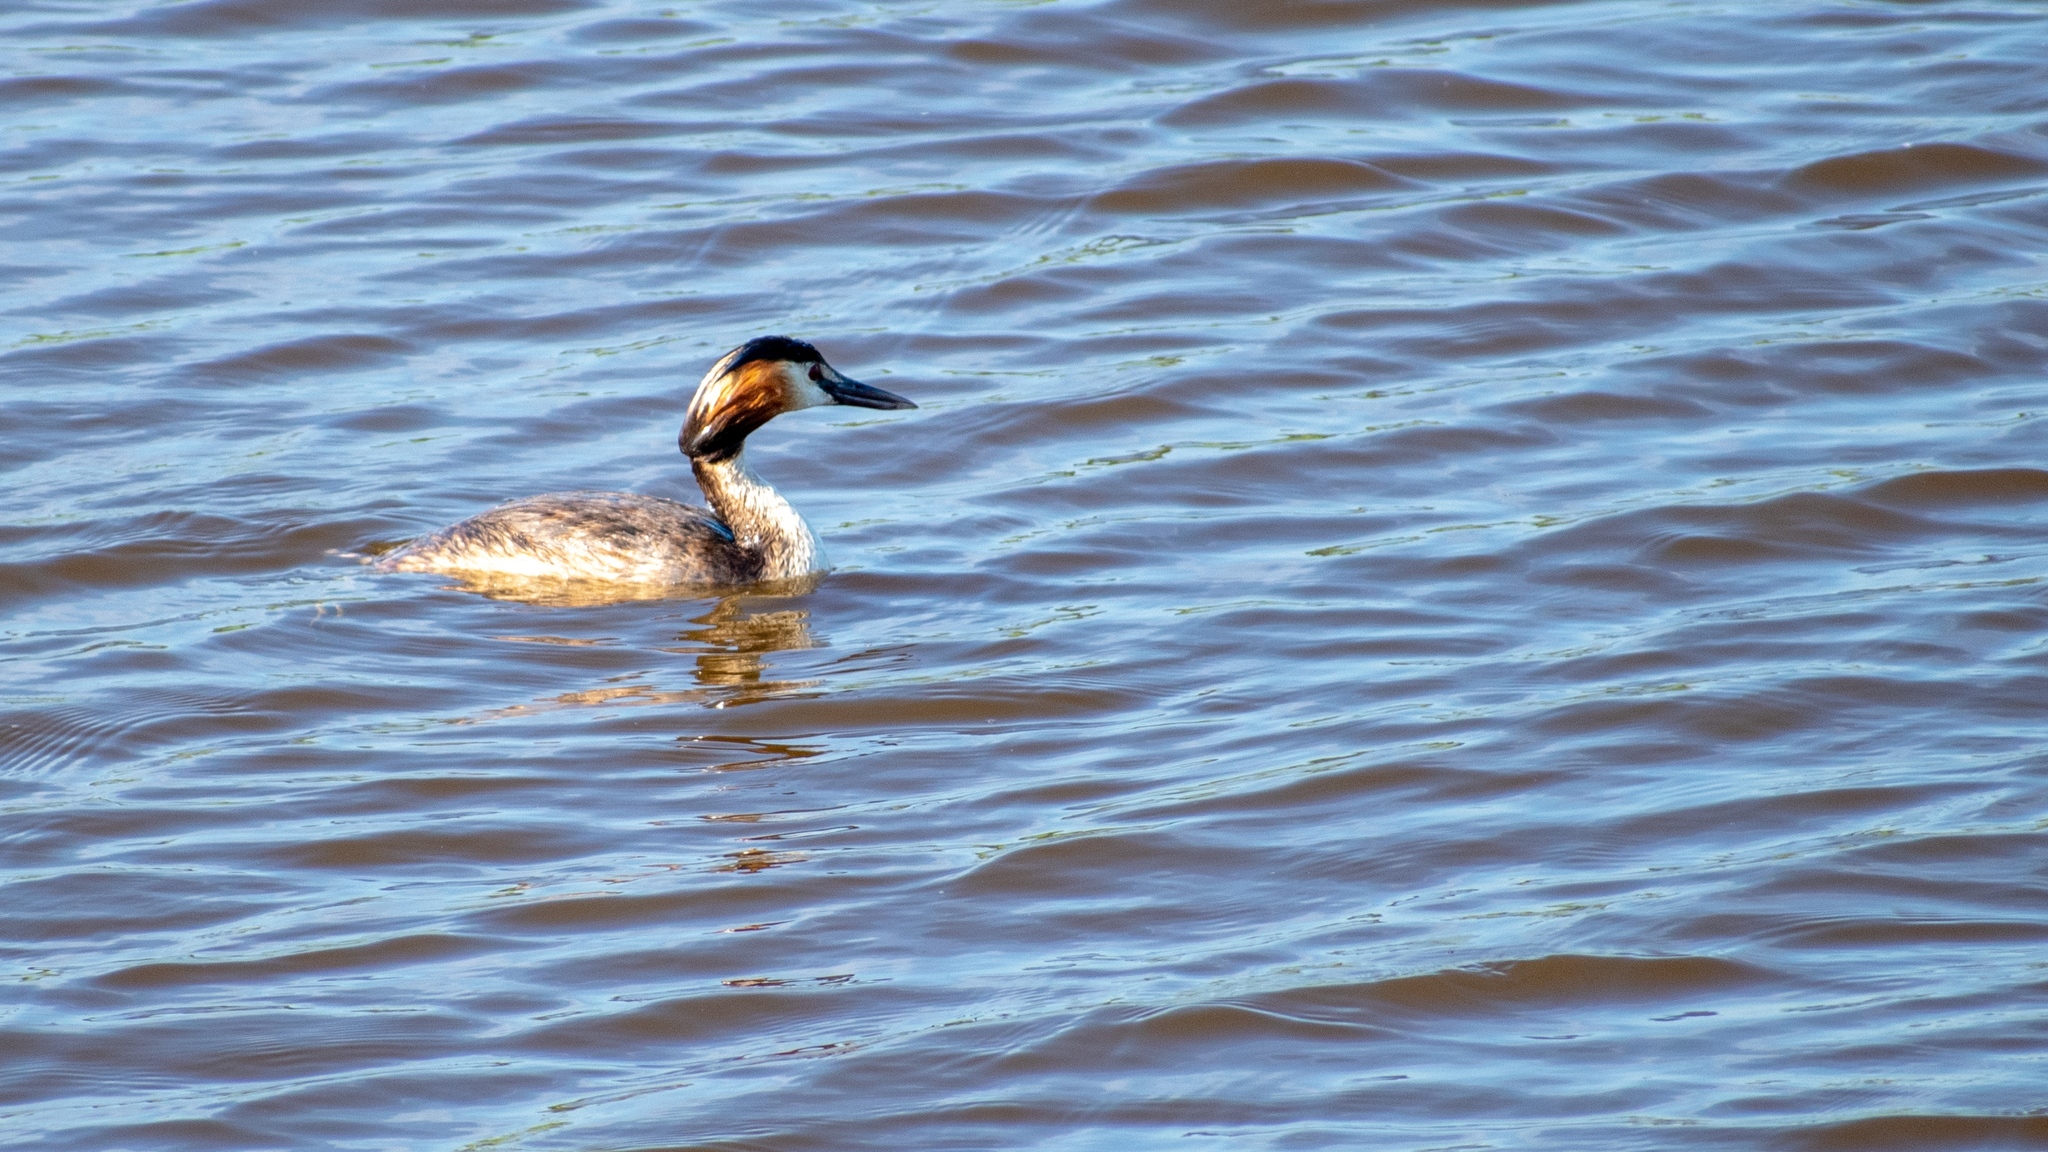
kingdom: Animalia
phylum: Chordata
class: Aves
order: Podicipediformes
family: Podicipedidae
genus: Podiceps
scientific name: Podiceps cristatus
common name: Great crested grebe
